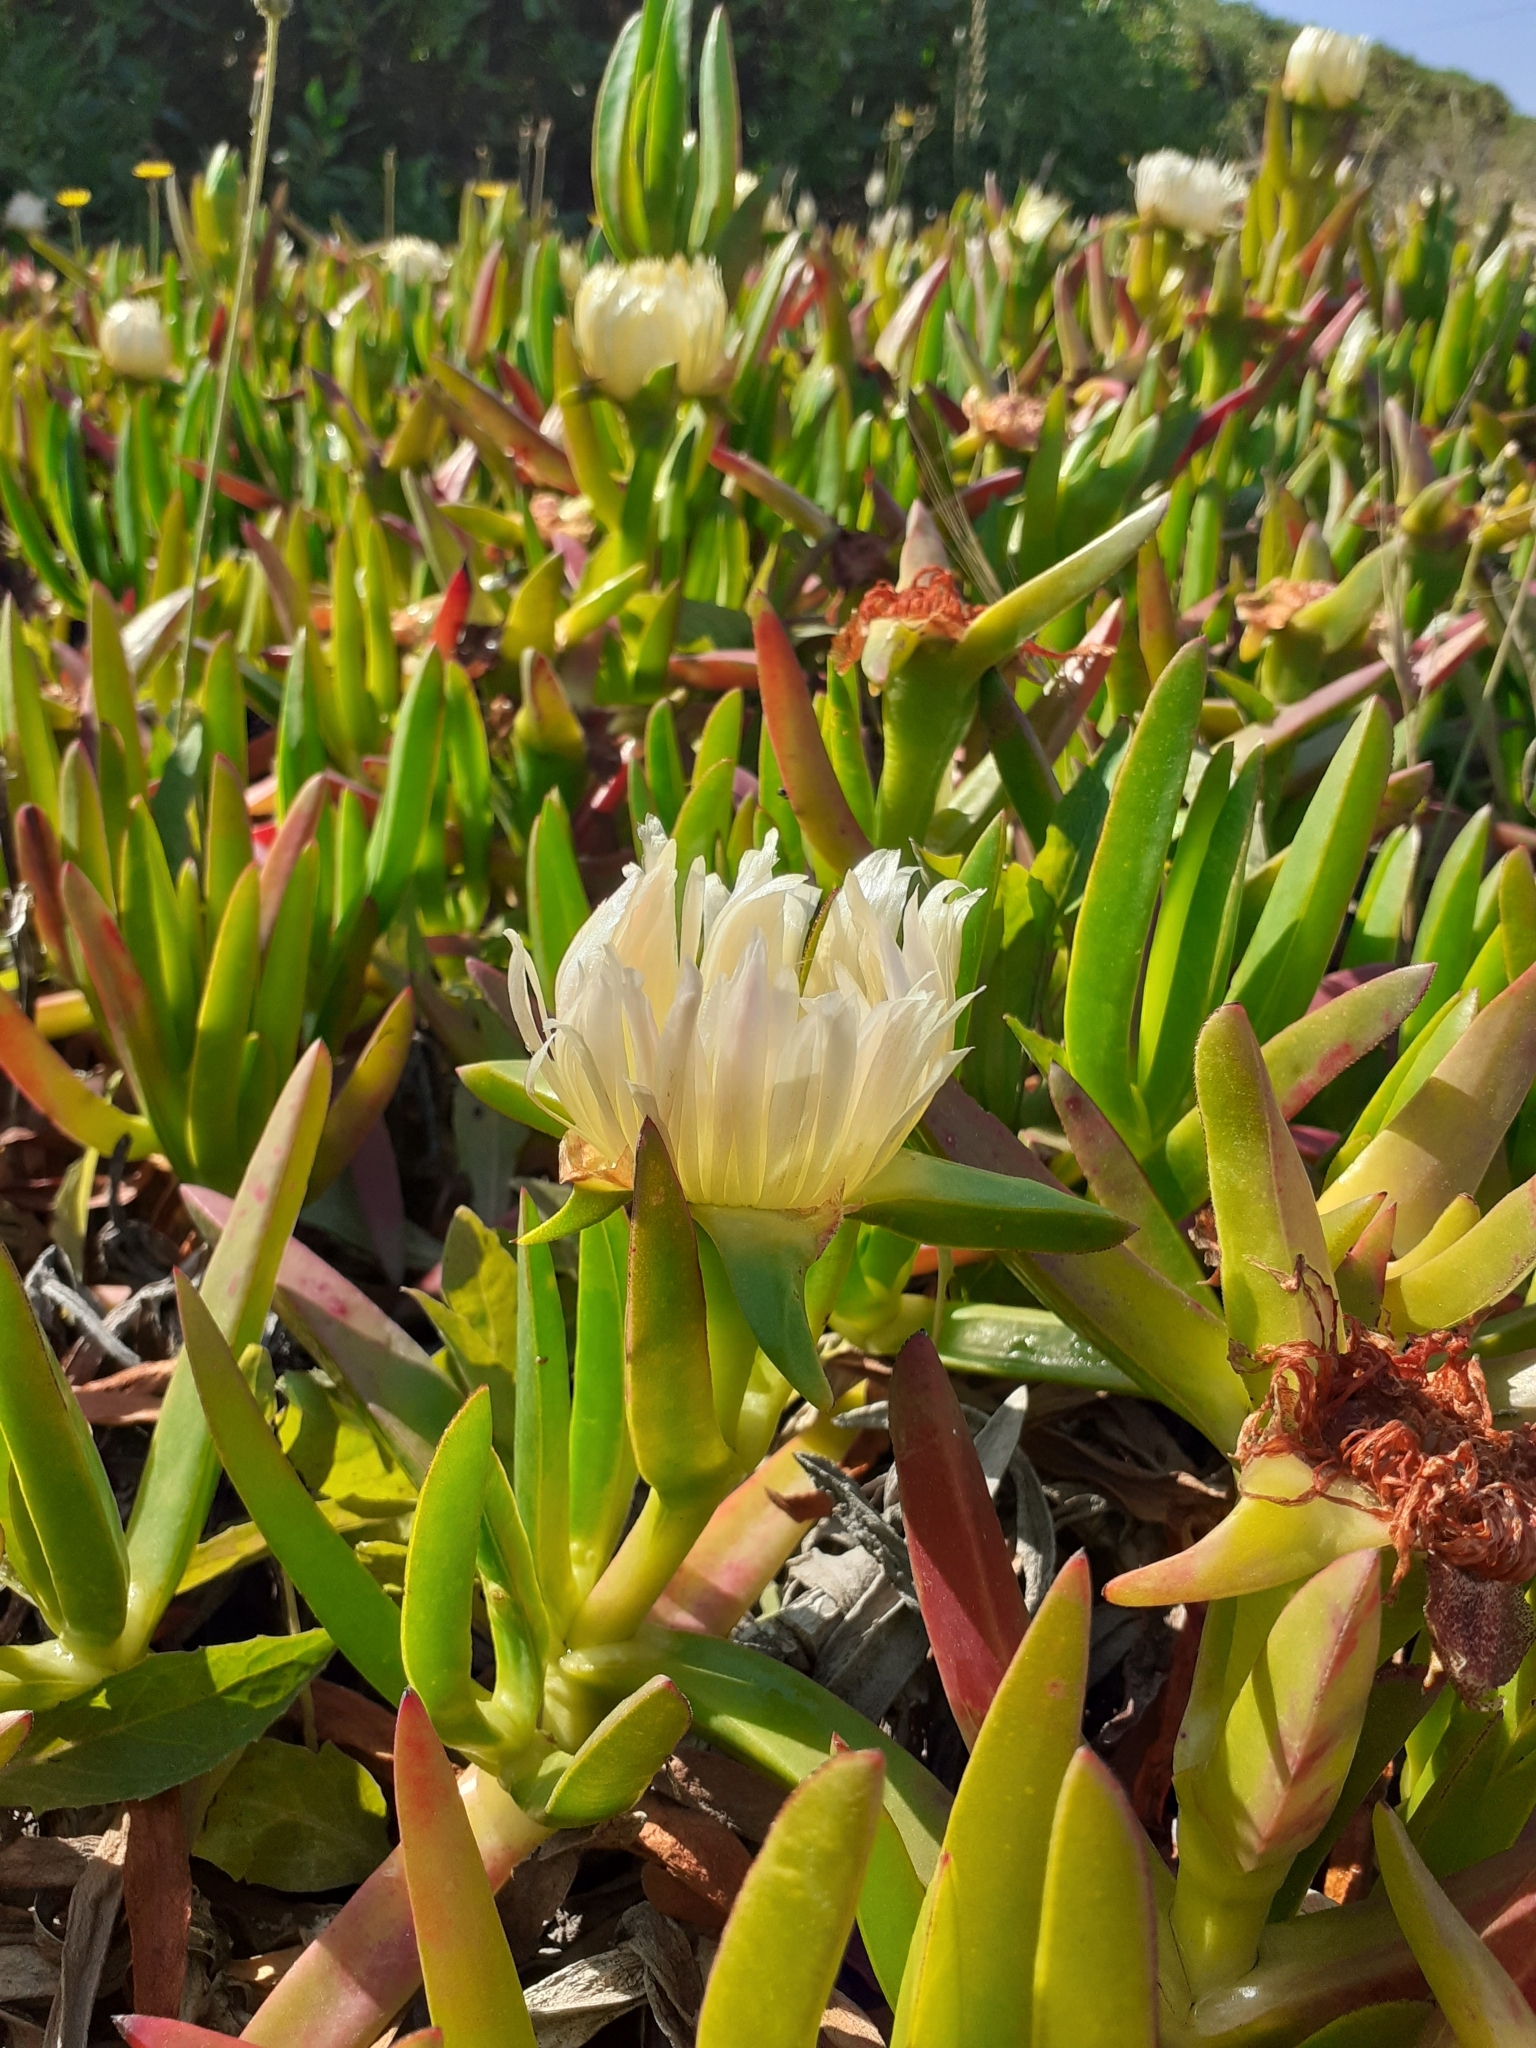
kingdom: Plantae
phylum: Tracheophyta
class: Magnoliopsida
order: Caryophyllales
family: Aizoaceae
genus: Carpobrotus
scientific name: Carpobrotus edulis
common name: Hottentot-fig
